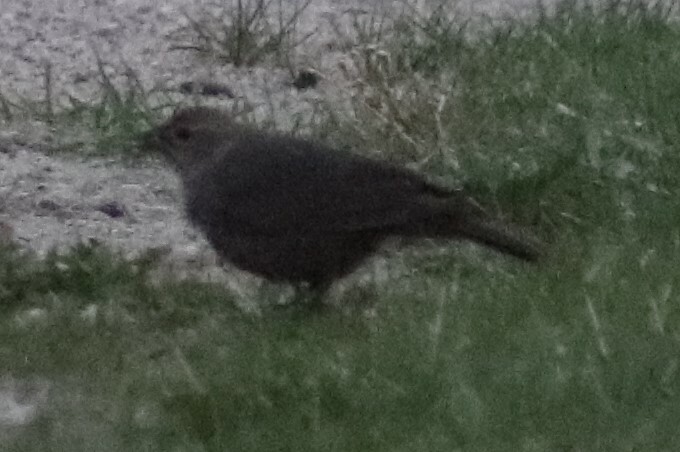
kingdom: Animalia
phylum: Chordata
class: Aves
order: Passeriformes
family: Icteridae
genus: Molothrus
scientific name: Molothrus ater
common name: Brown-headed cowbird
